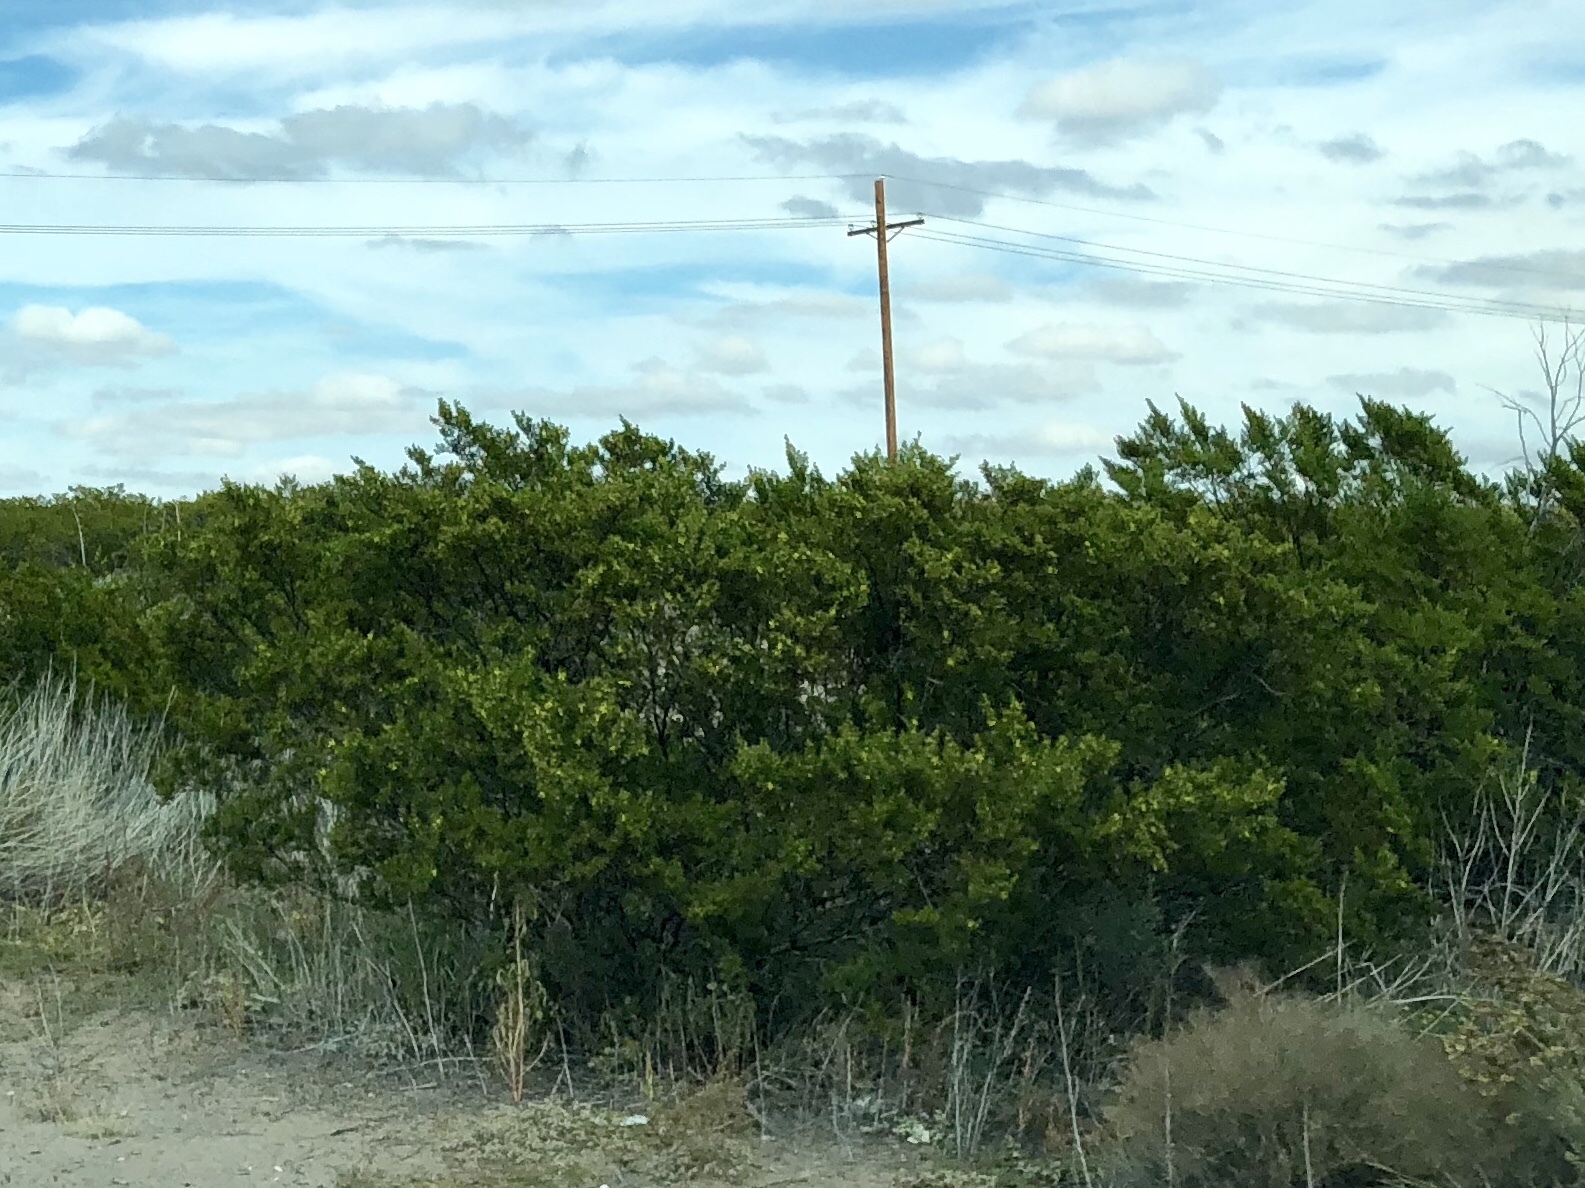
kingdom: Plantae
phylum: Tracheophyta
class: Magnoliopsida
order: Zygophyllales
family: Zygophyllaceae
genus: Larrea
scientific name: Larrea tridentata
